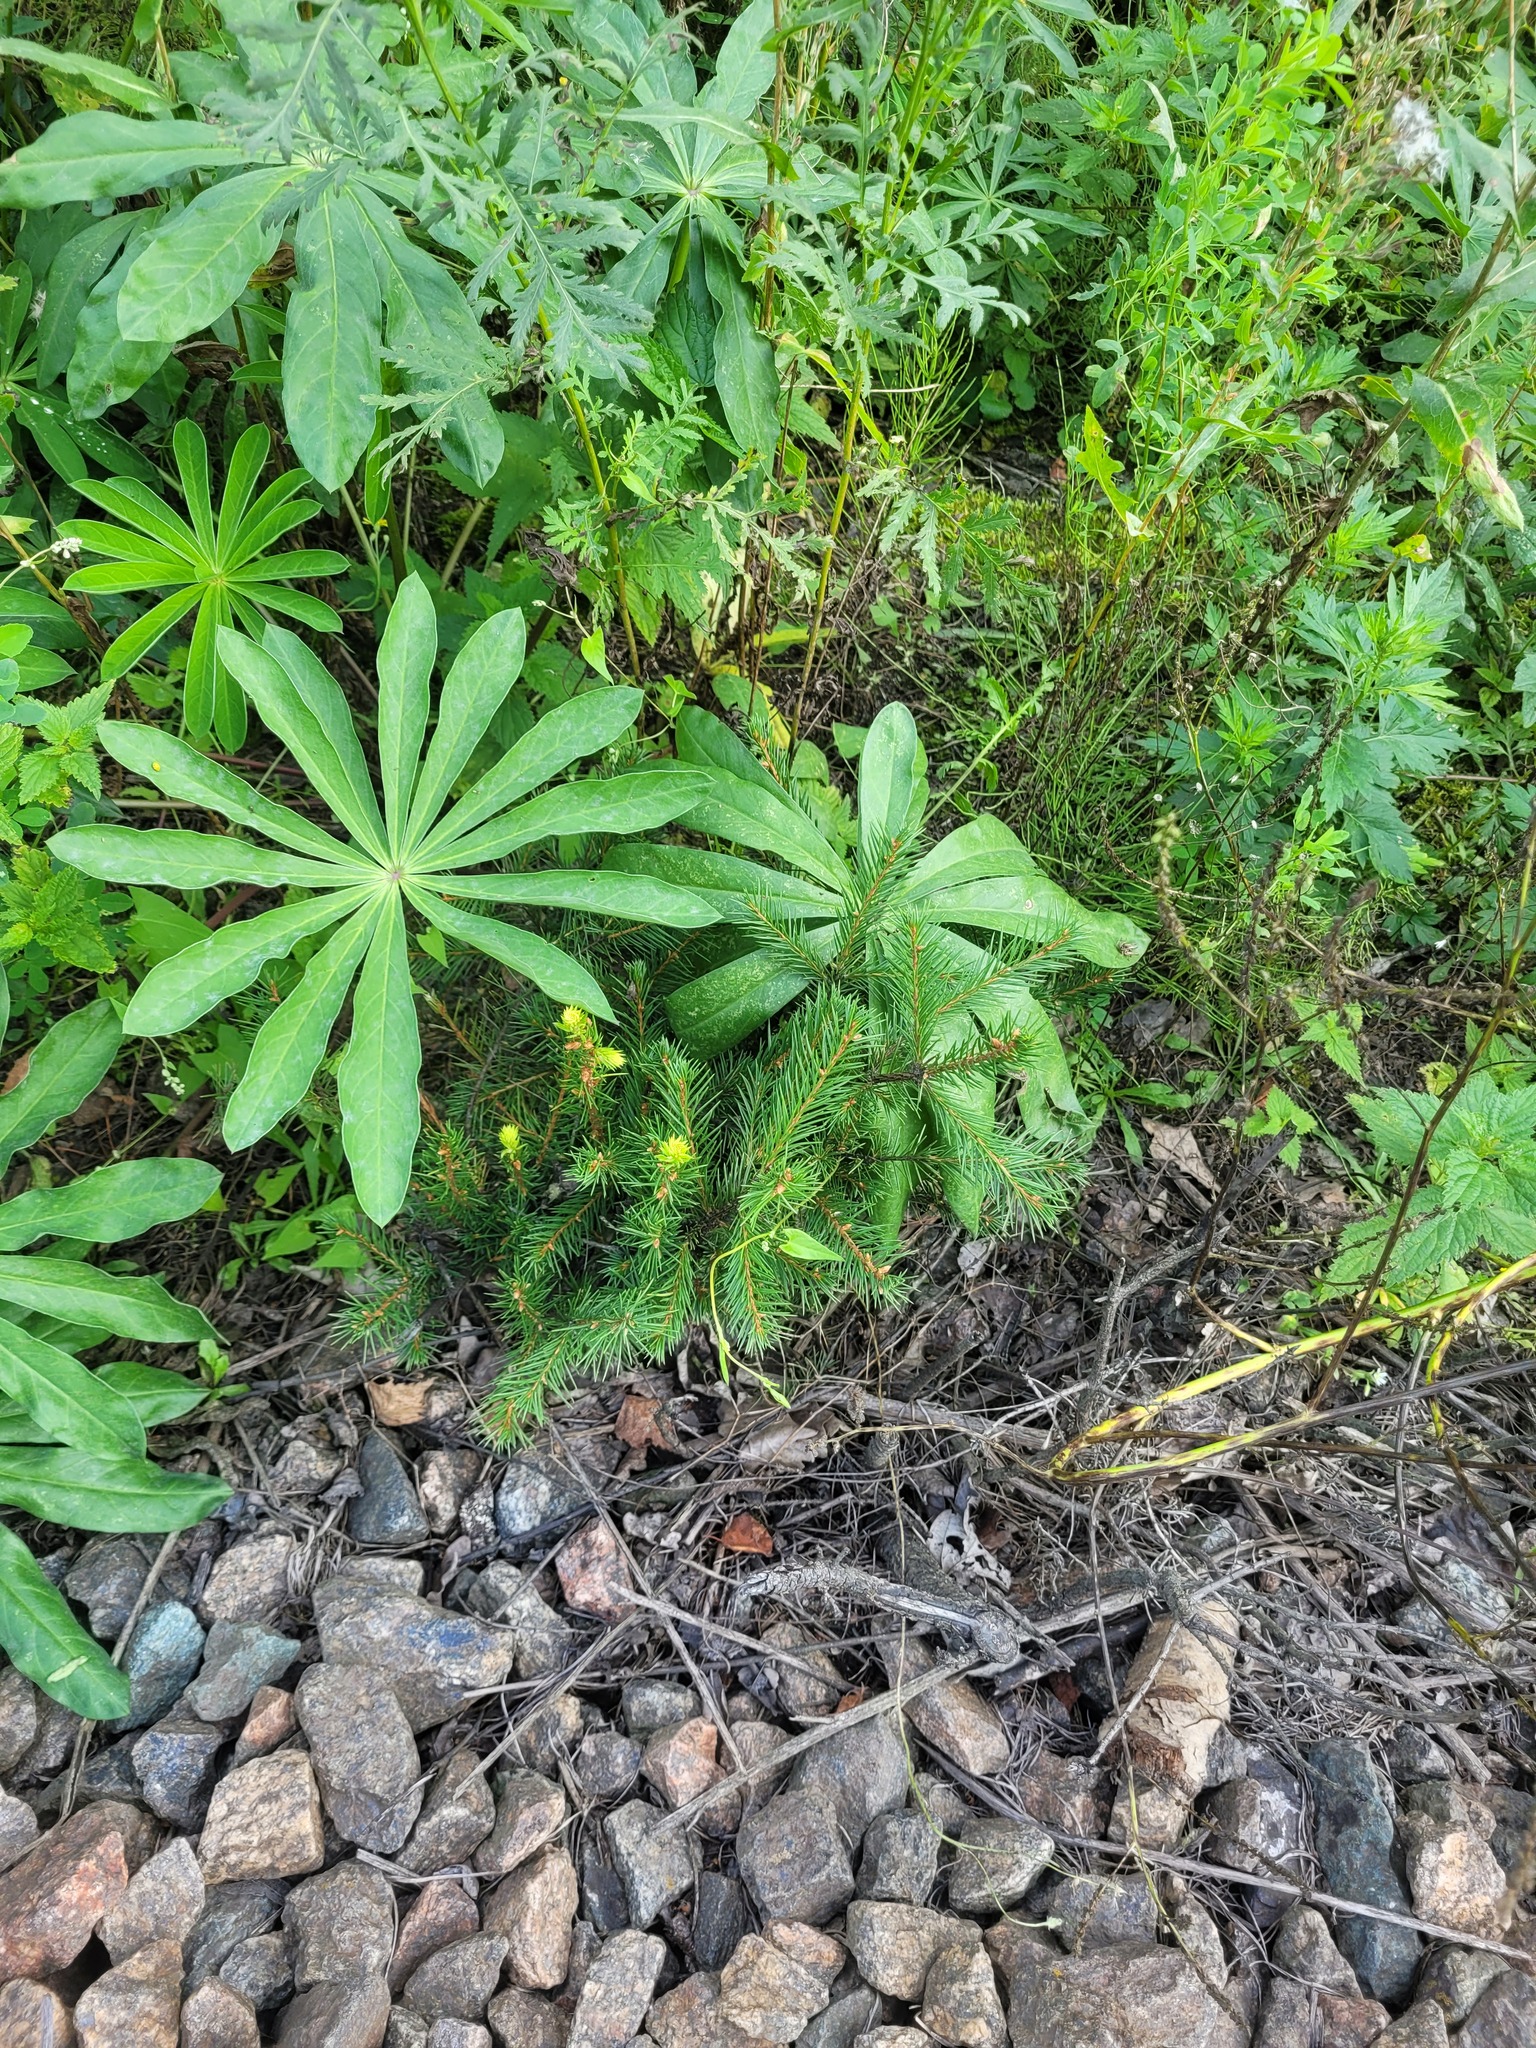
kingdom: Plantae
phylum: Tracheophyta
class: Pinopsida
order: Pinales
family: Pinaceae
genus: Picea
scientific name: Picea abies
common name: Norway spruce
